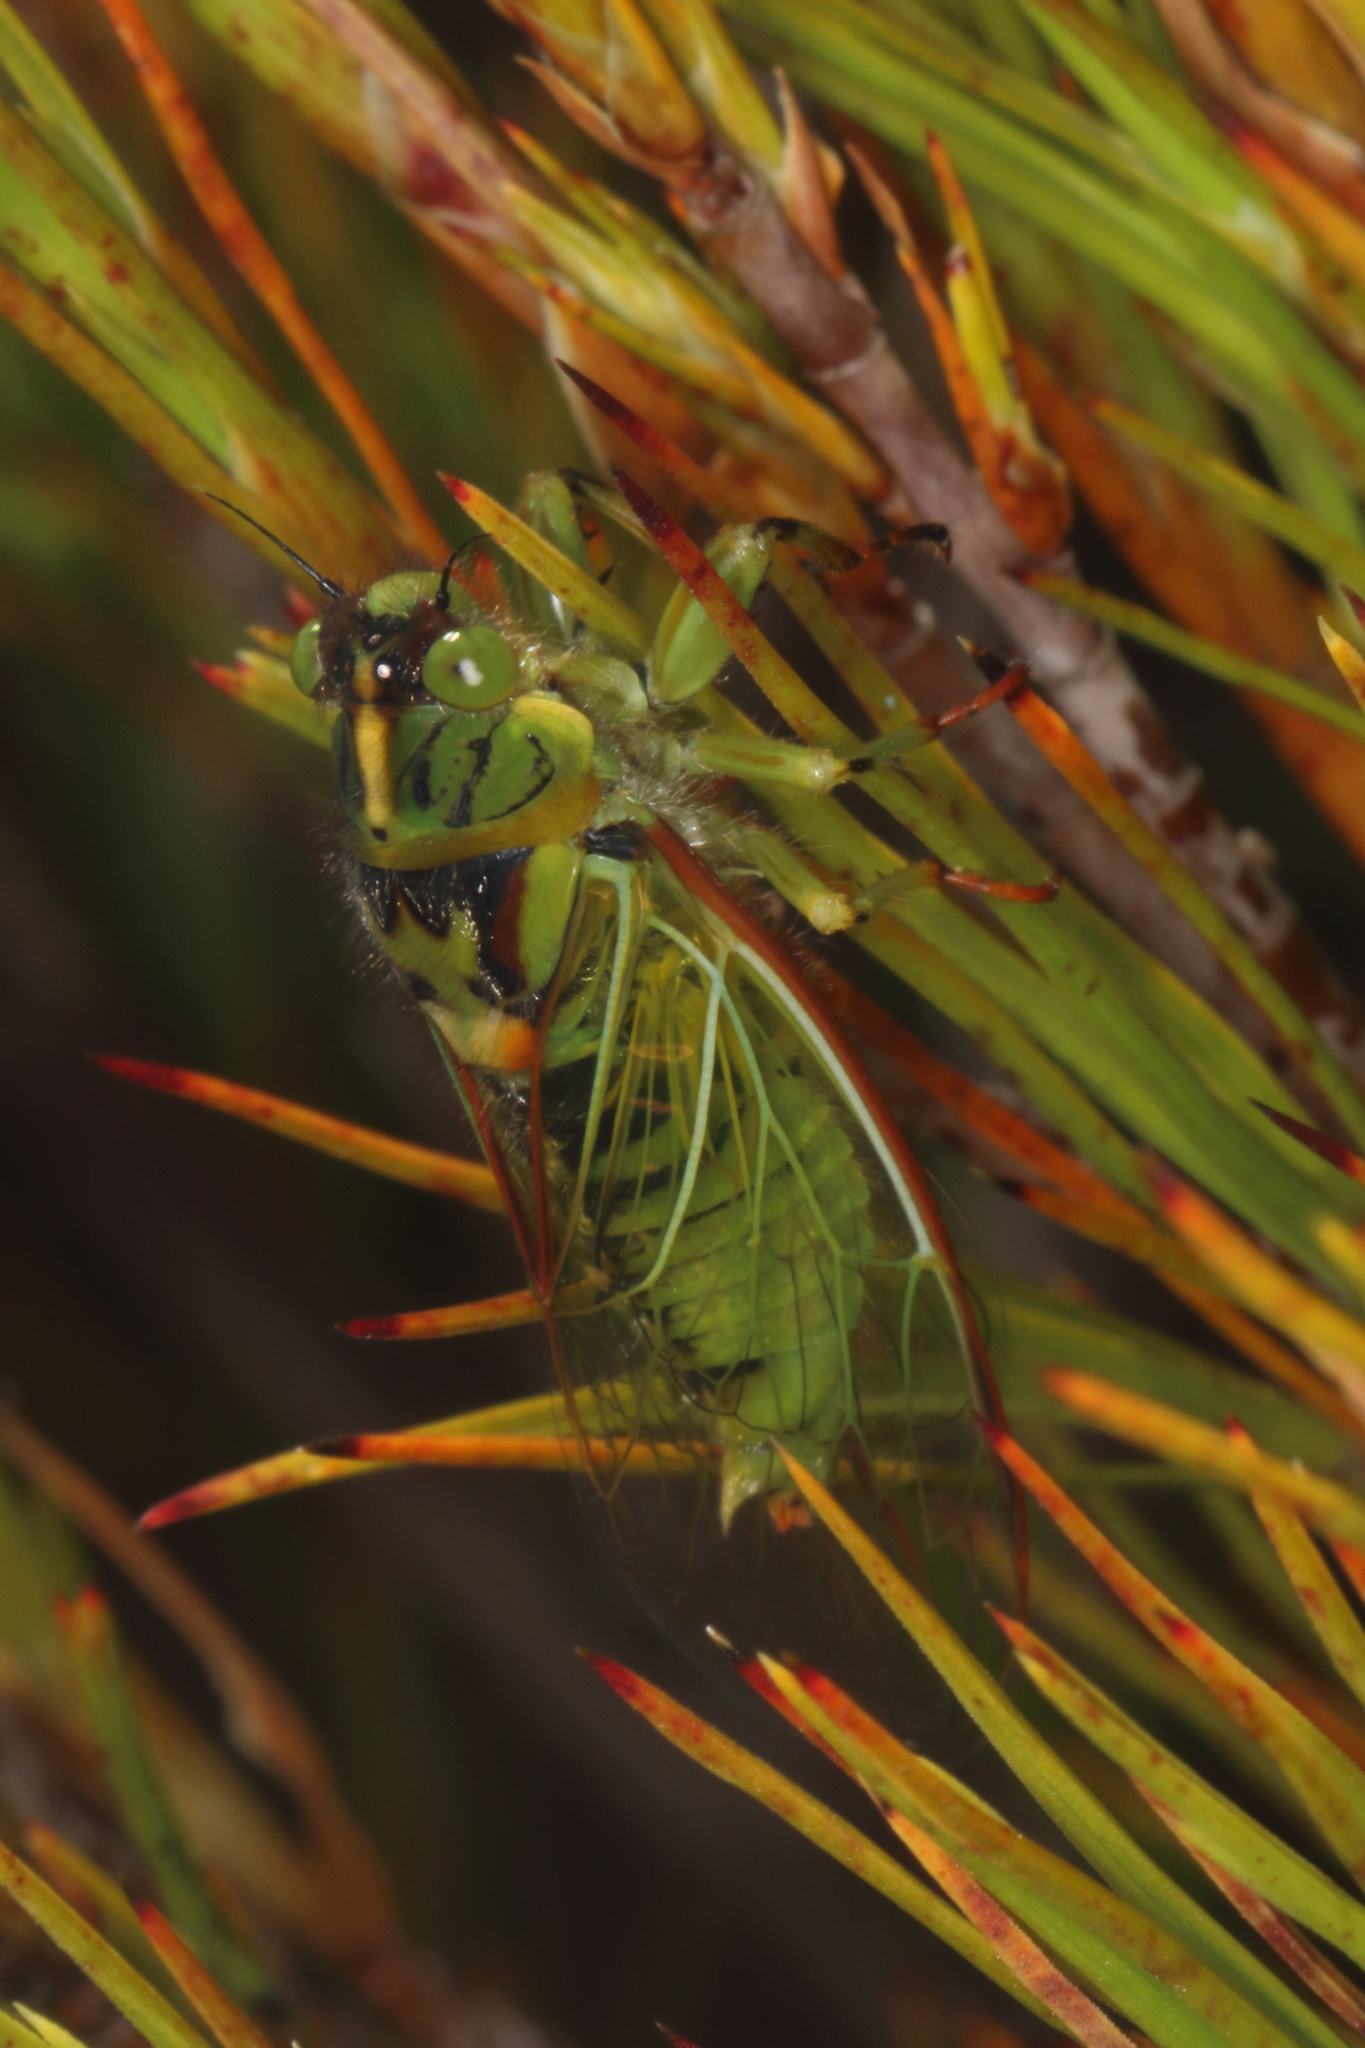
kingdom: Animalia
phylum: Arthropoda
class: Insecta
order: Hemiptera
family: Cicadidae
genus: Kikihia
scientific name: Kikihia horologium
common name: Clock cicada
